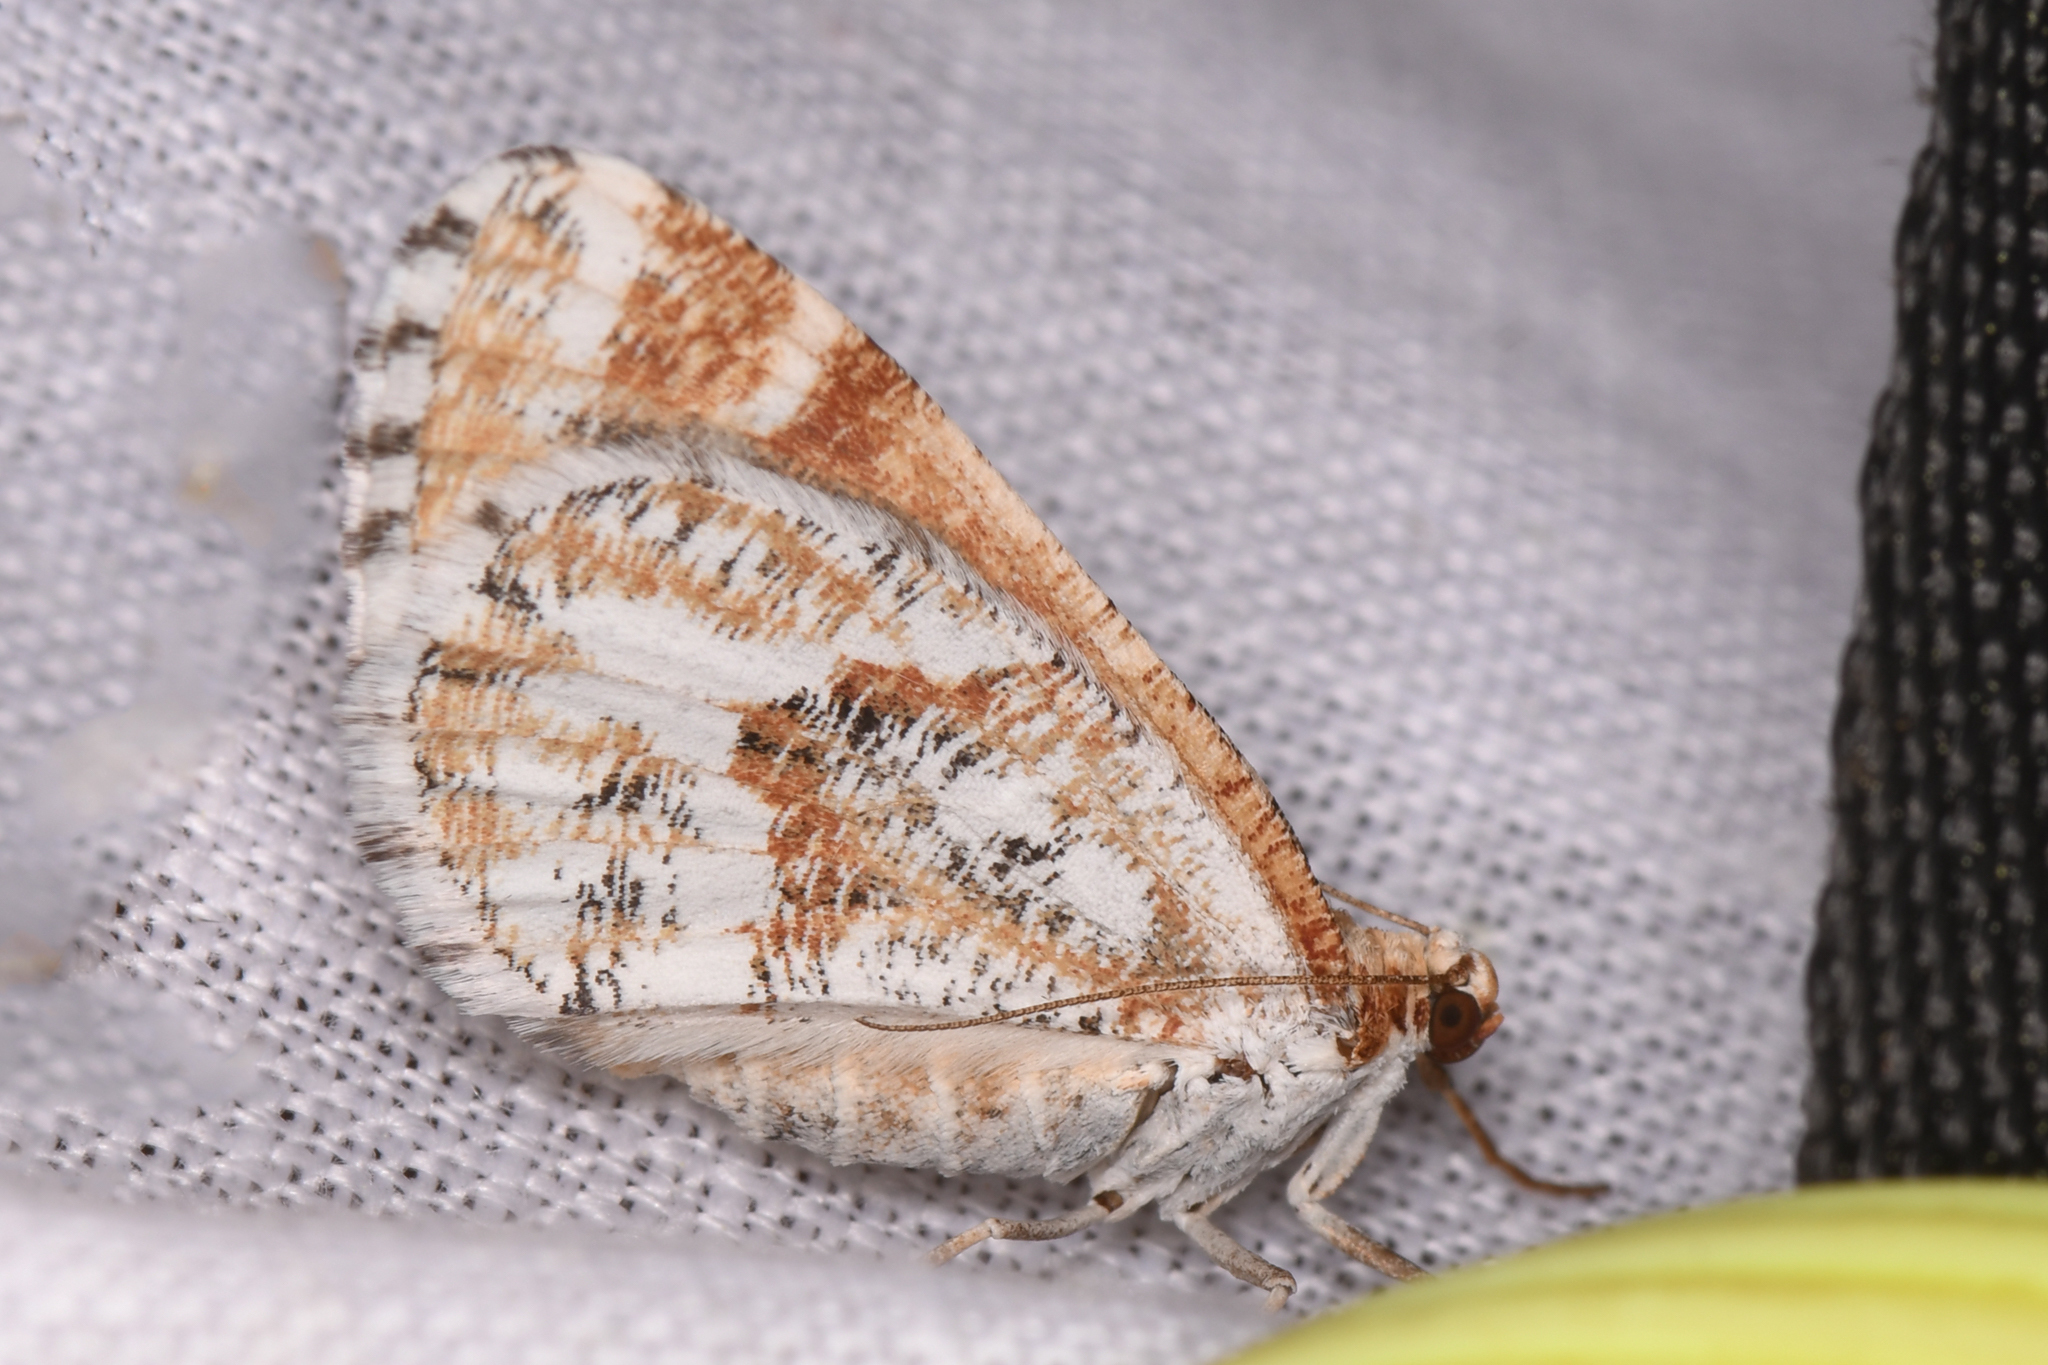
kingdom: Animalia
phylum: Arthropoda
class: Insecta
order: Lepidoptera
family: Geometridae
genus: Stamnodes
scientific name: Stamnodes marmorata
